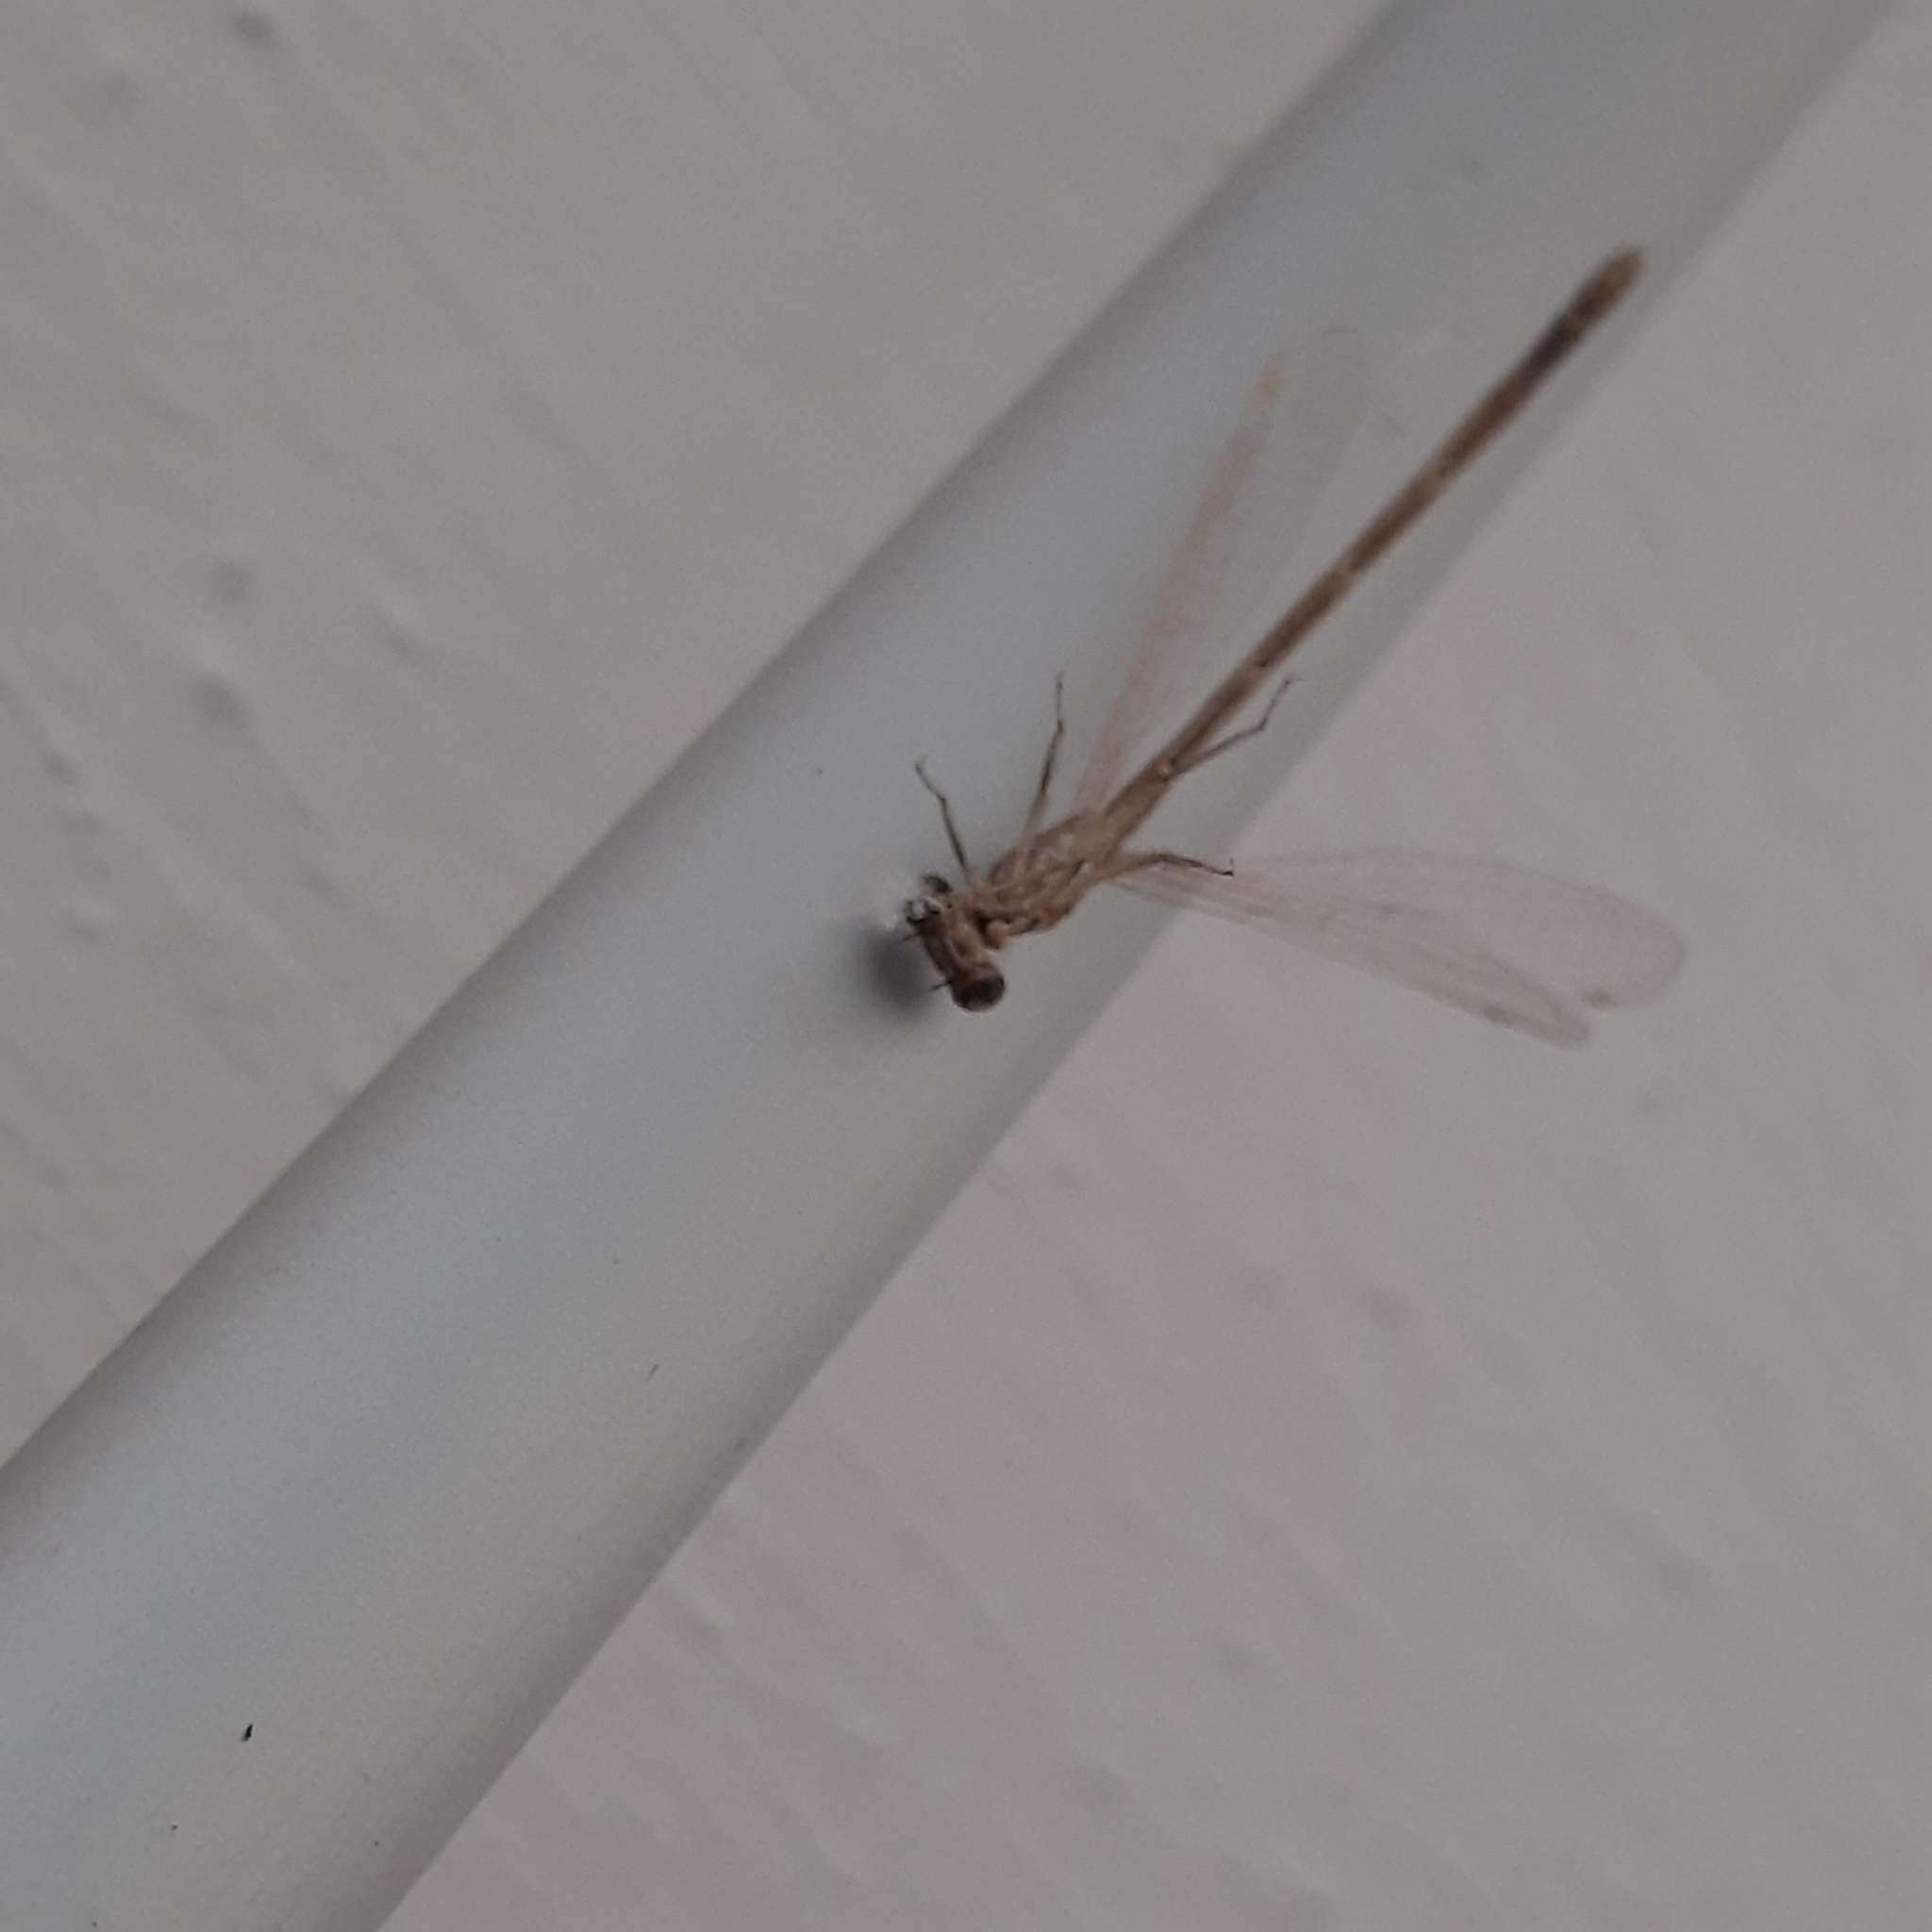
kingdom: Animalia
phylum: Arthropoda
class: Insecta
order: Odonata
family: Lestidae
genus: Sympecma
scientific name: Sympecma fusca
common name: Common winter damsel
